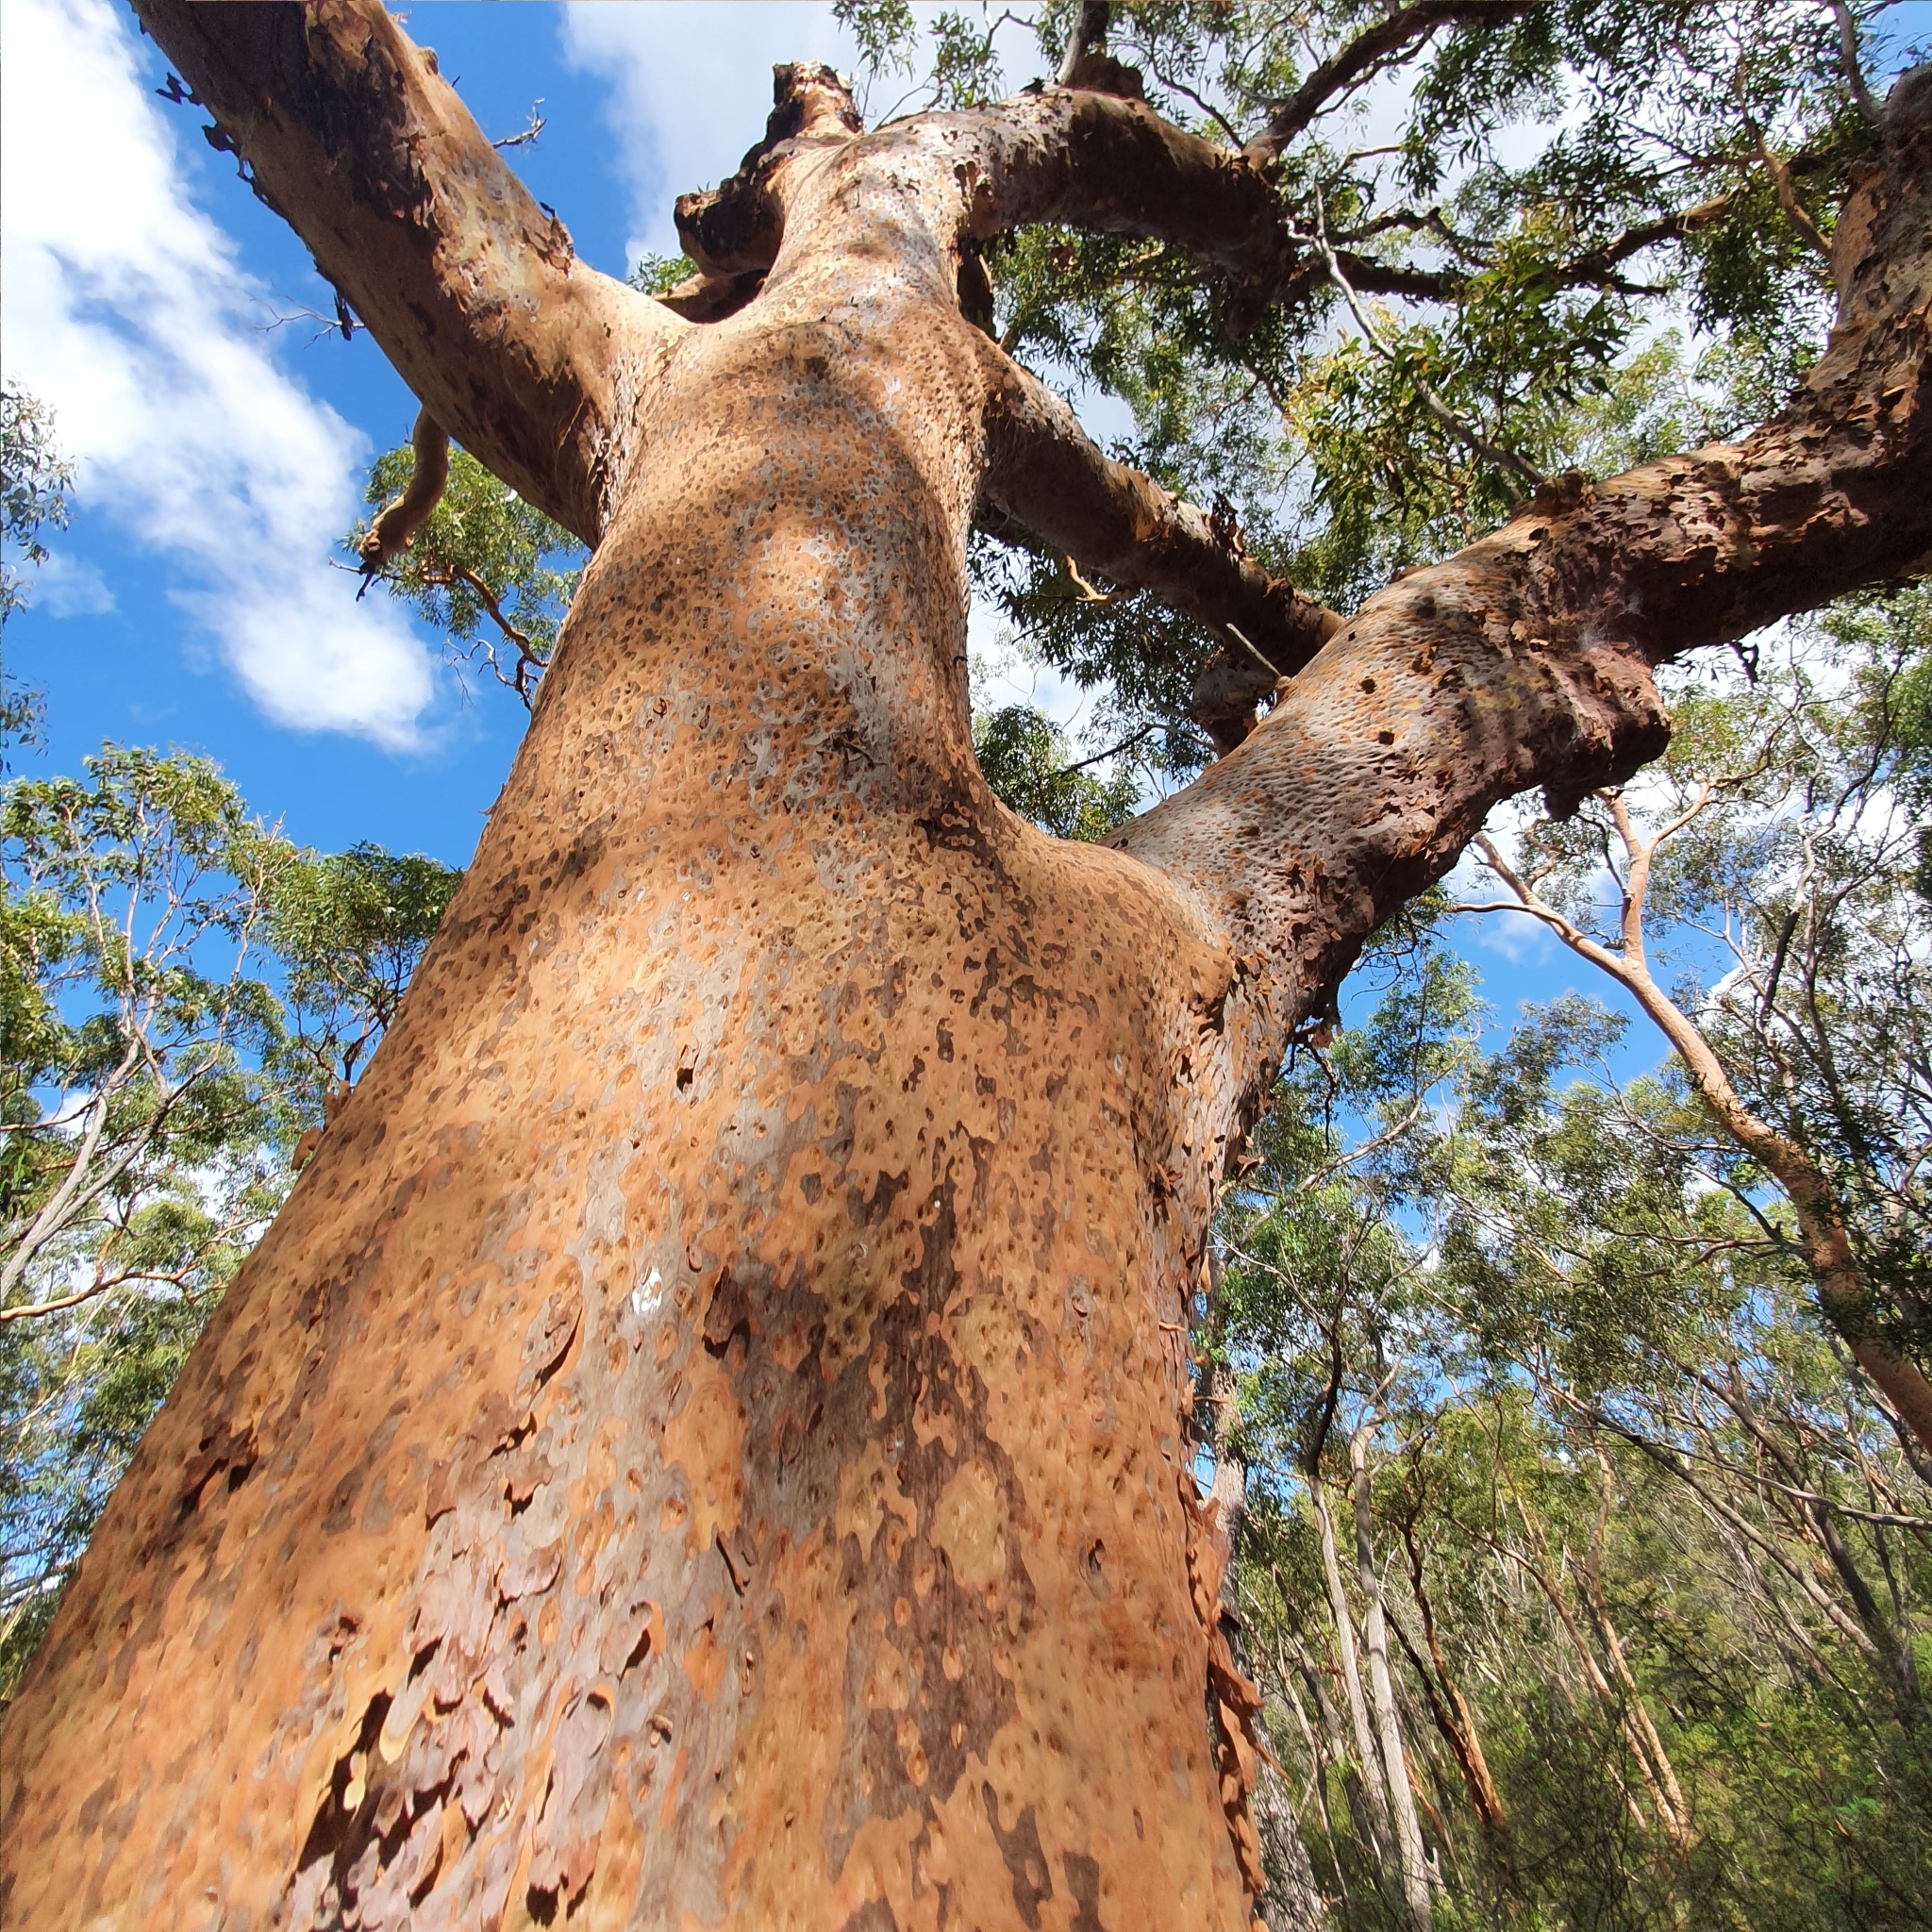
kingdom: Plantae
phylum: Tracheophyta
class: Magnoliopsida
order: Myrtales
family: Myrtaceae
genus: Angophora
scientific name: Angophora costata
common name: Gum myrtle
